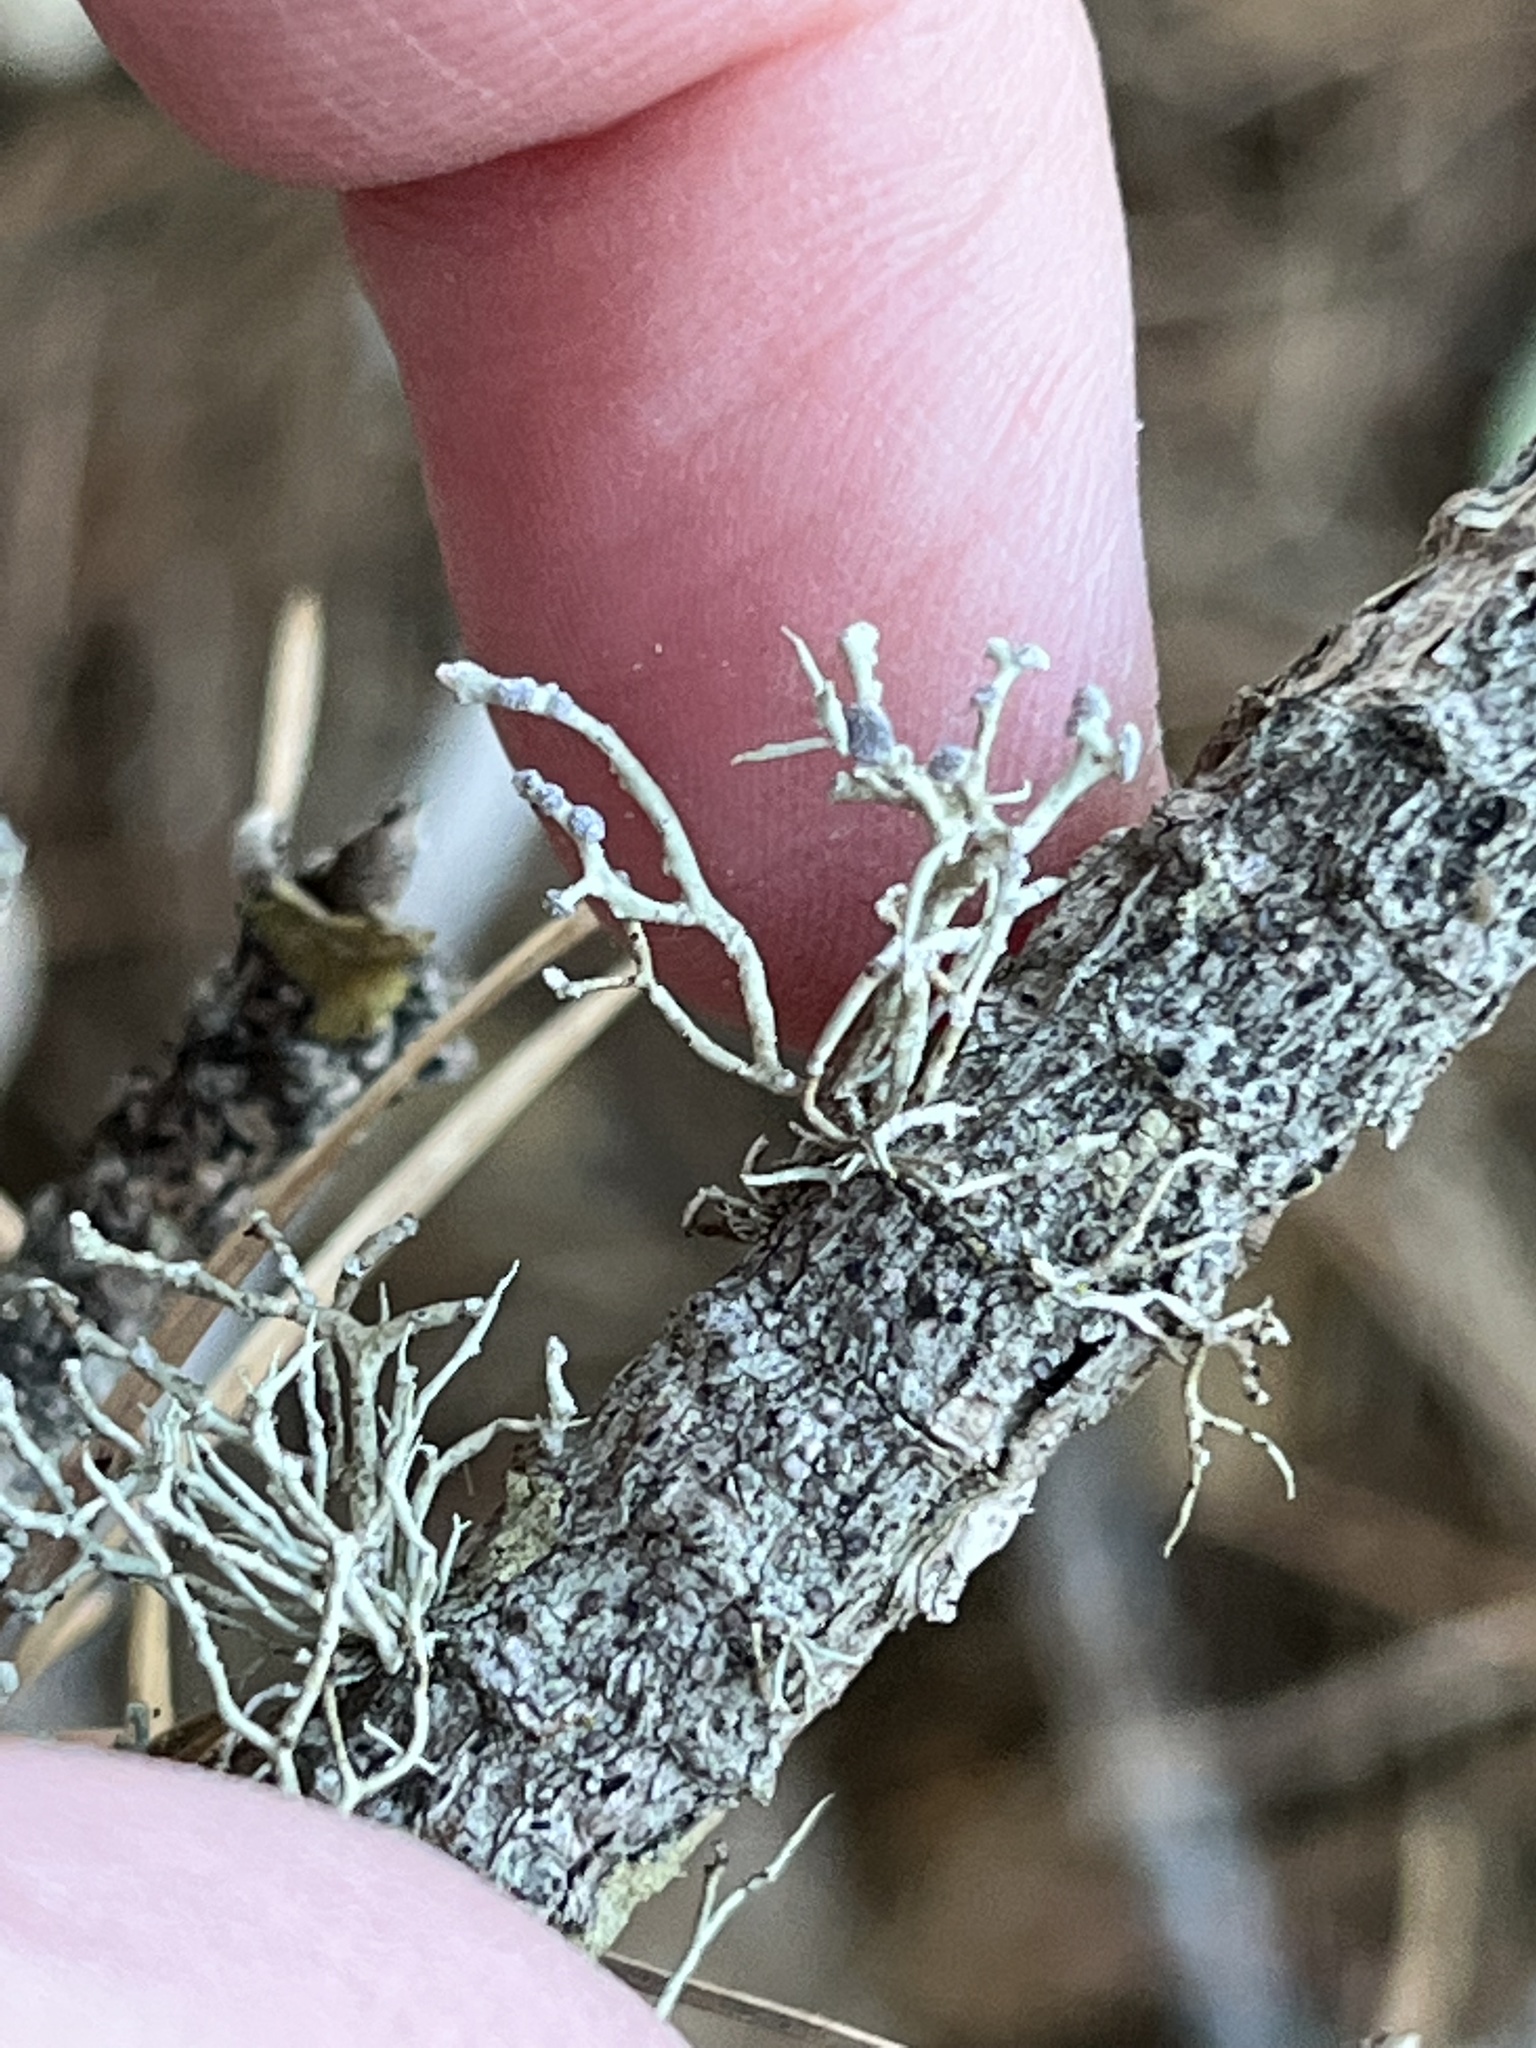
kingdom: Fungi
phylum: Ascomycota
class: Lecanoromycetes
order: Lecanorales
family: Ramalinaceae
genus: Niebla
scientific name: Niebla cephalota
